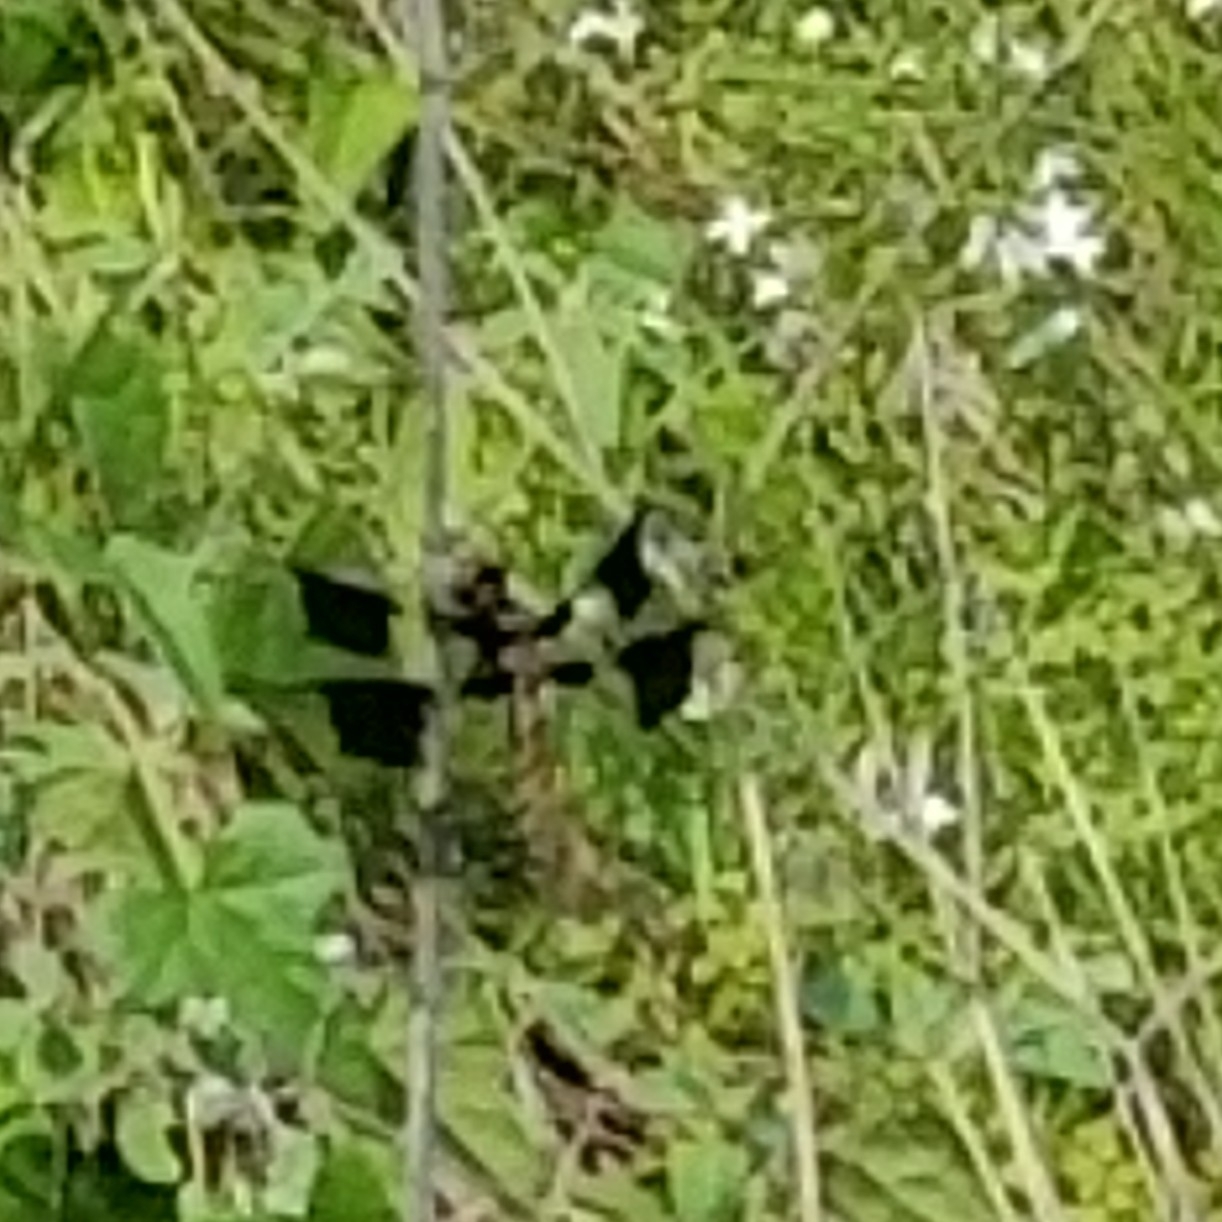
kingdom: Animalia
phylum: Arthropoda
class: Insecta
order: Odonata
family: Libellulidae
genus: Plathemis
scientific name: Plathemis lydia
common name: Common whitetail
